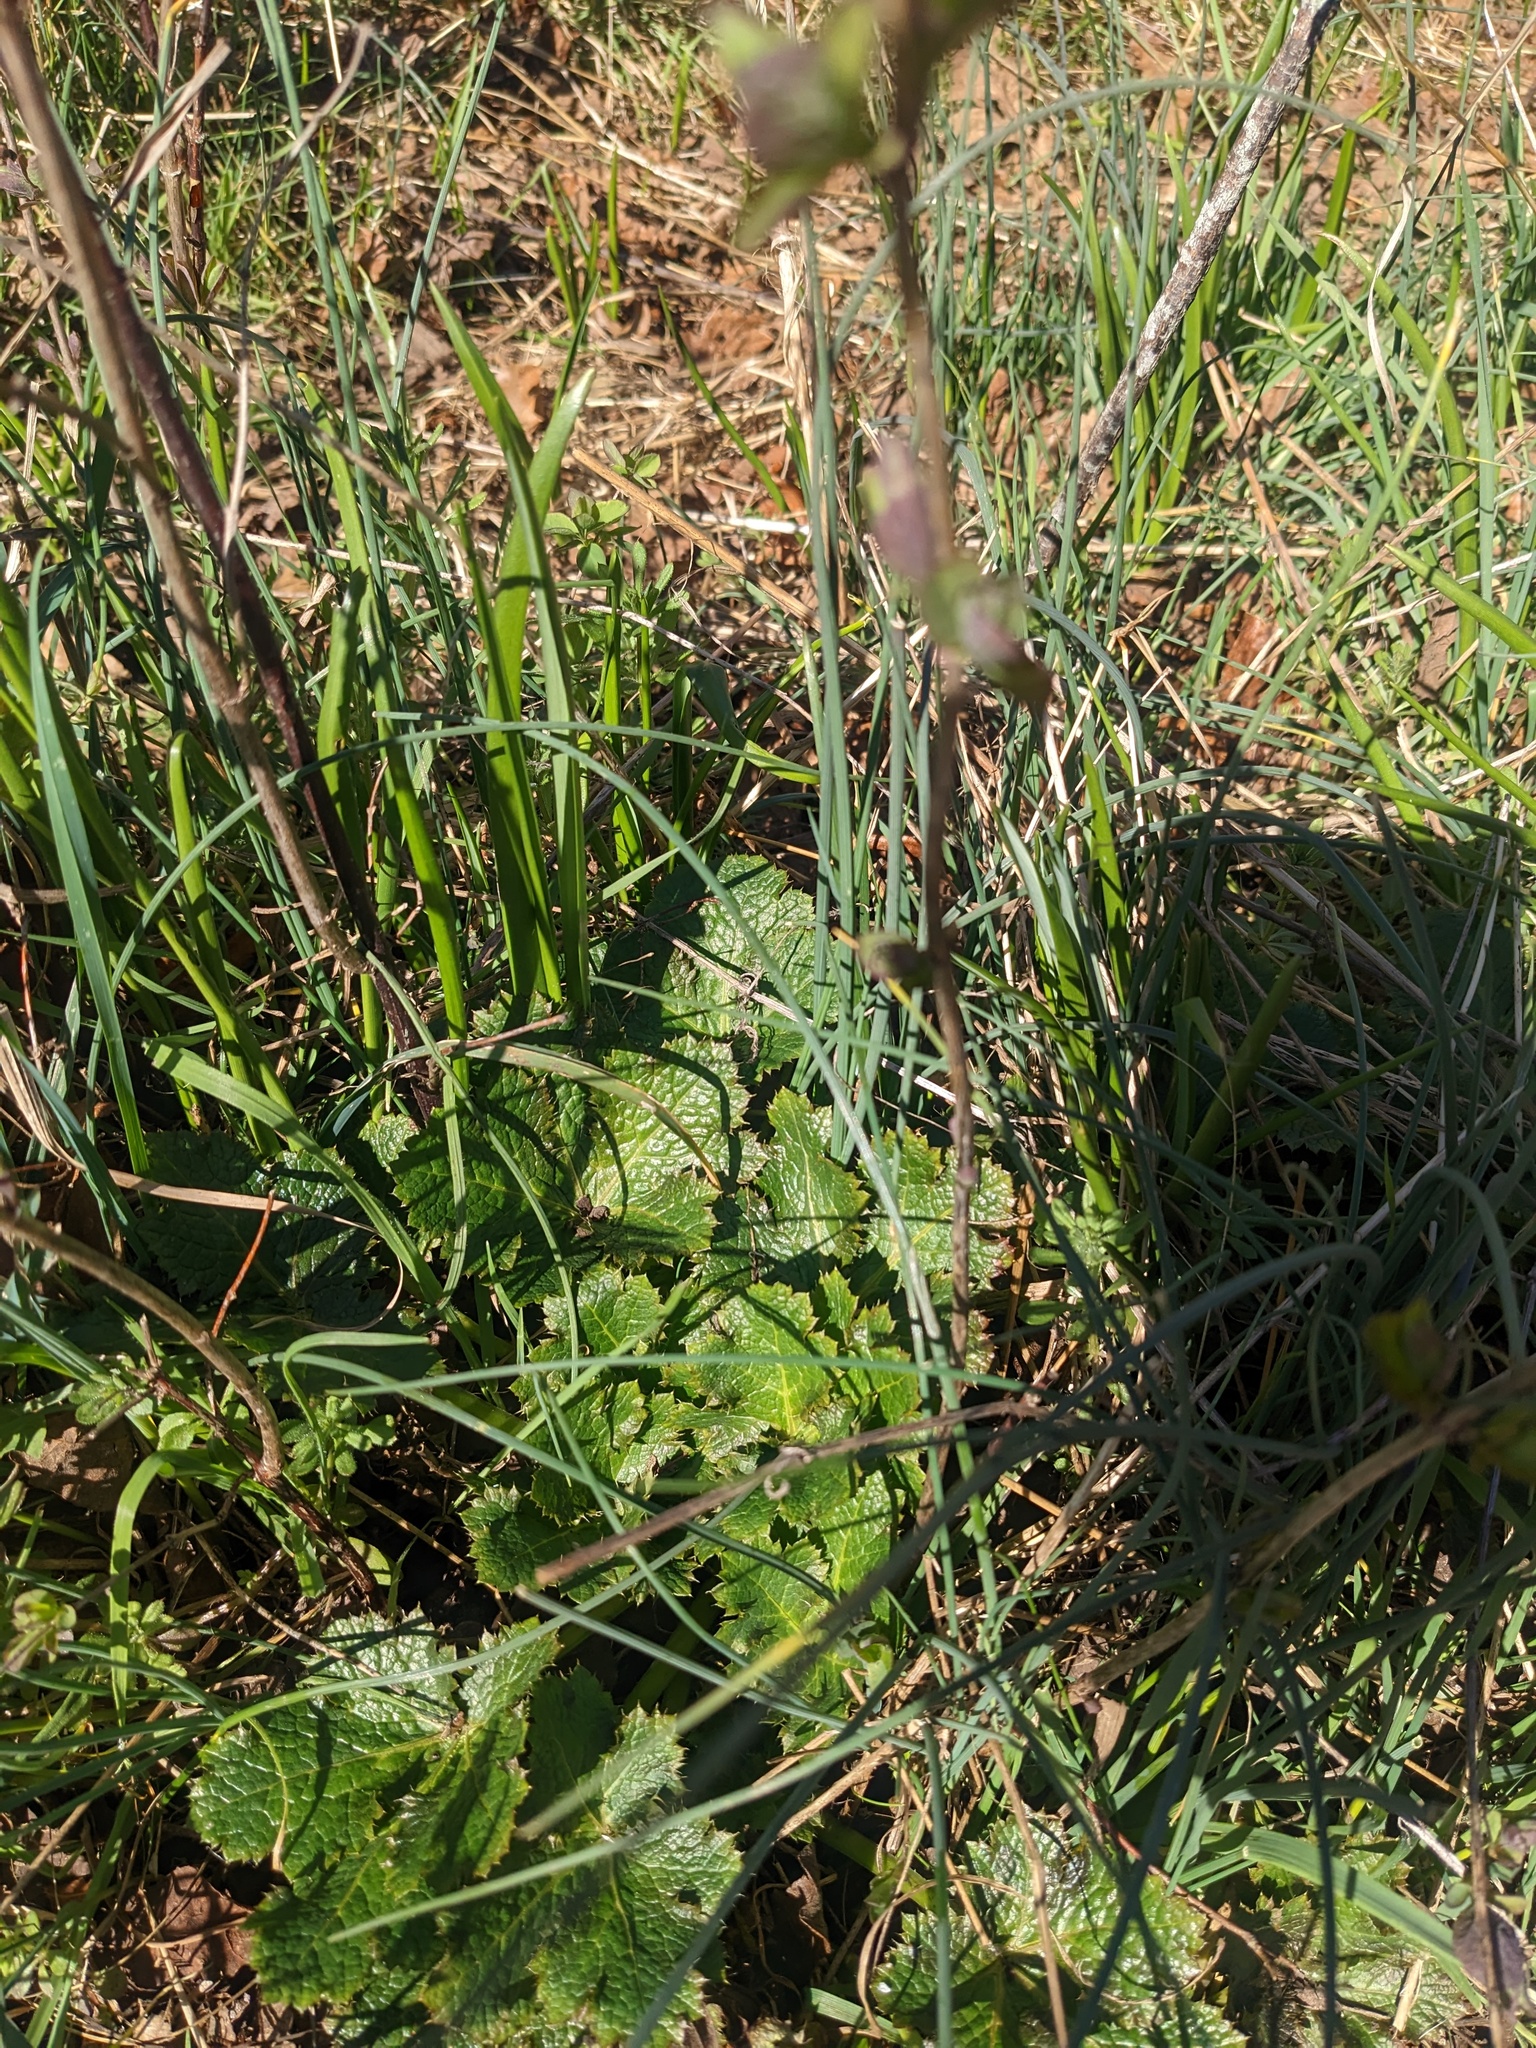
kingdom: Plantae
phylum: Tracheophyta
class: Magnoliopsida
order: Apiales
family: Apiaceae
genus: Sanicula
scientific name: Sanicula crassicaulis
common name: Western snakeroot
